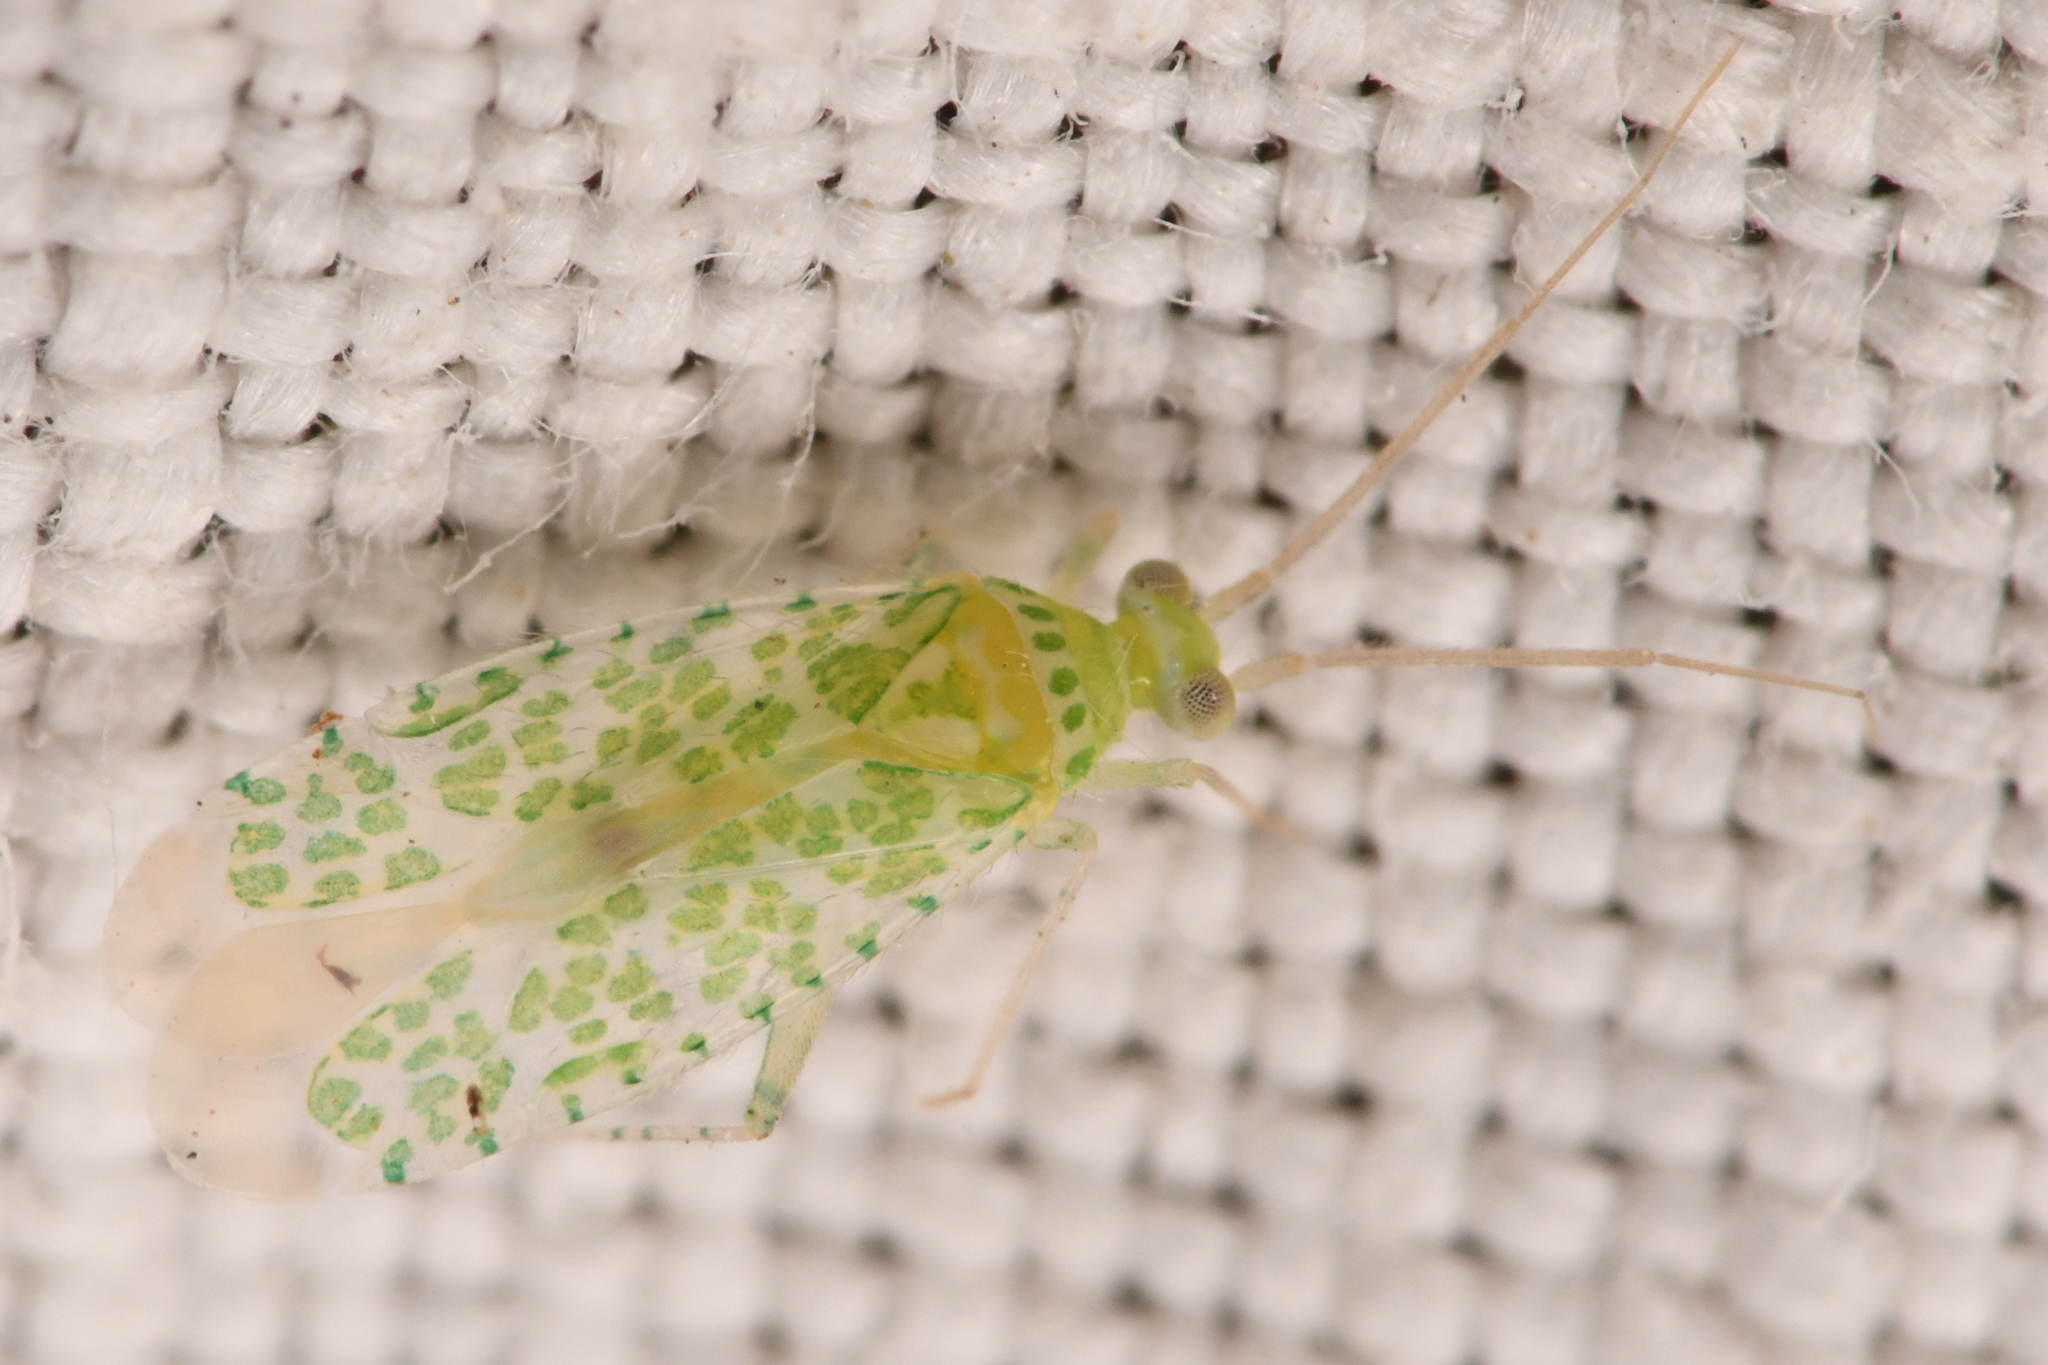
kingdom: Animalia
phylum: Arthropoda
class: Insecta
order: Hemiptera
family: Miridae
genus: Saileria
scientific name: Saileria bella
